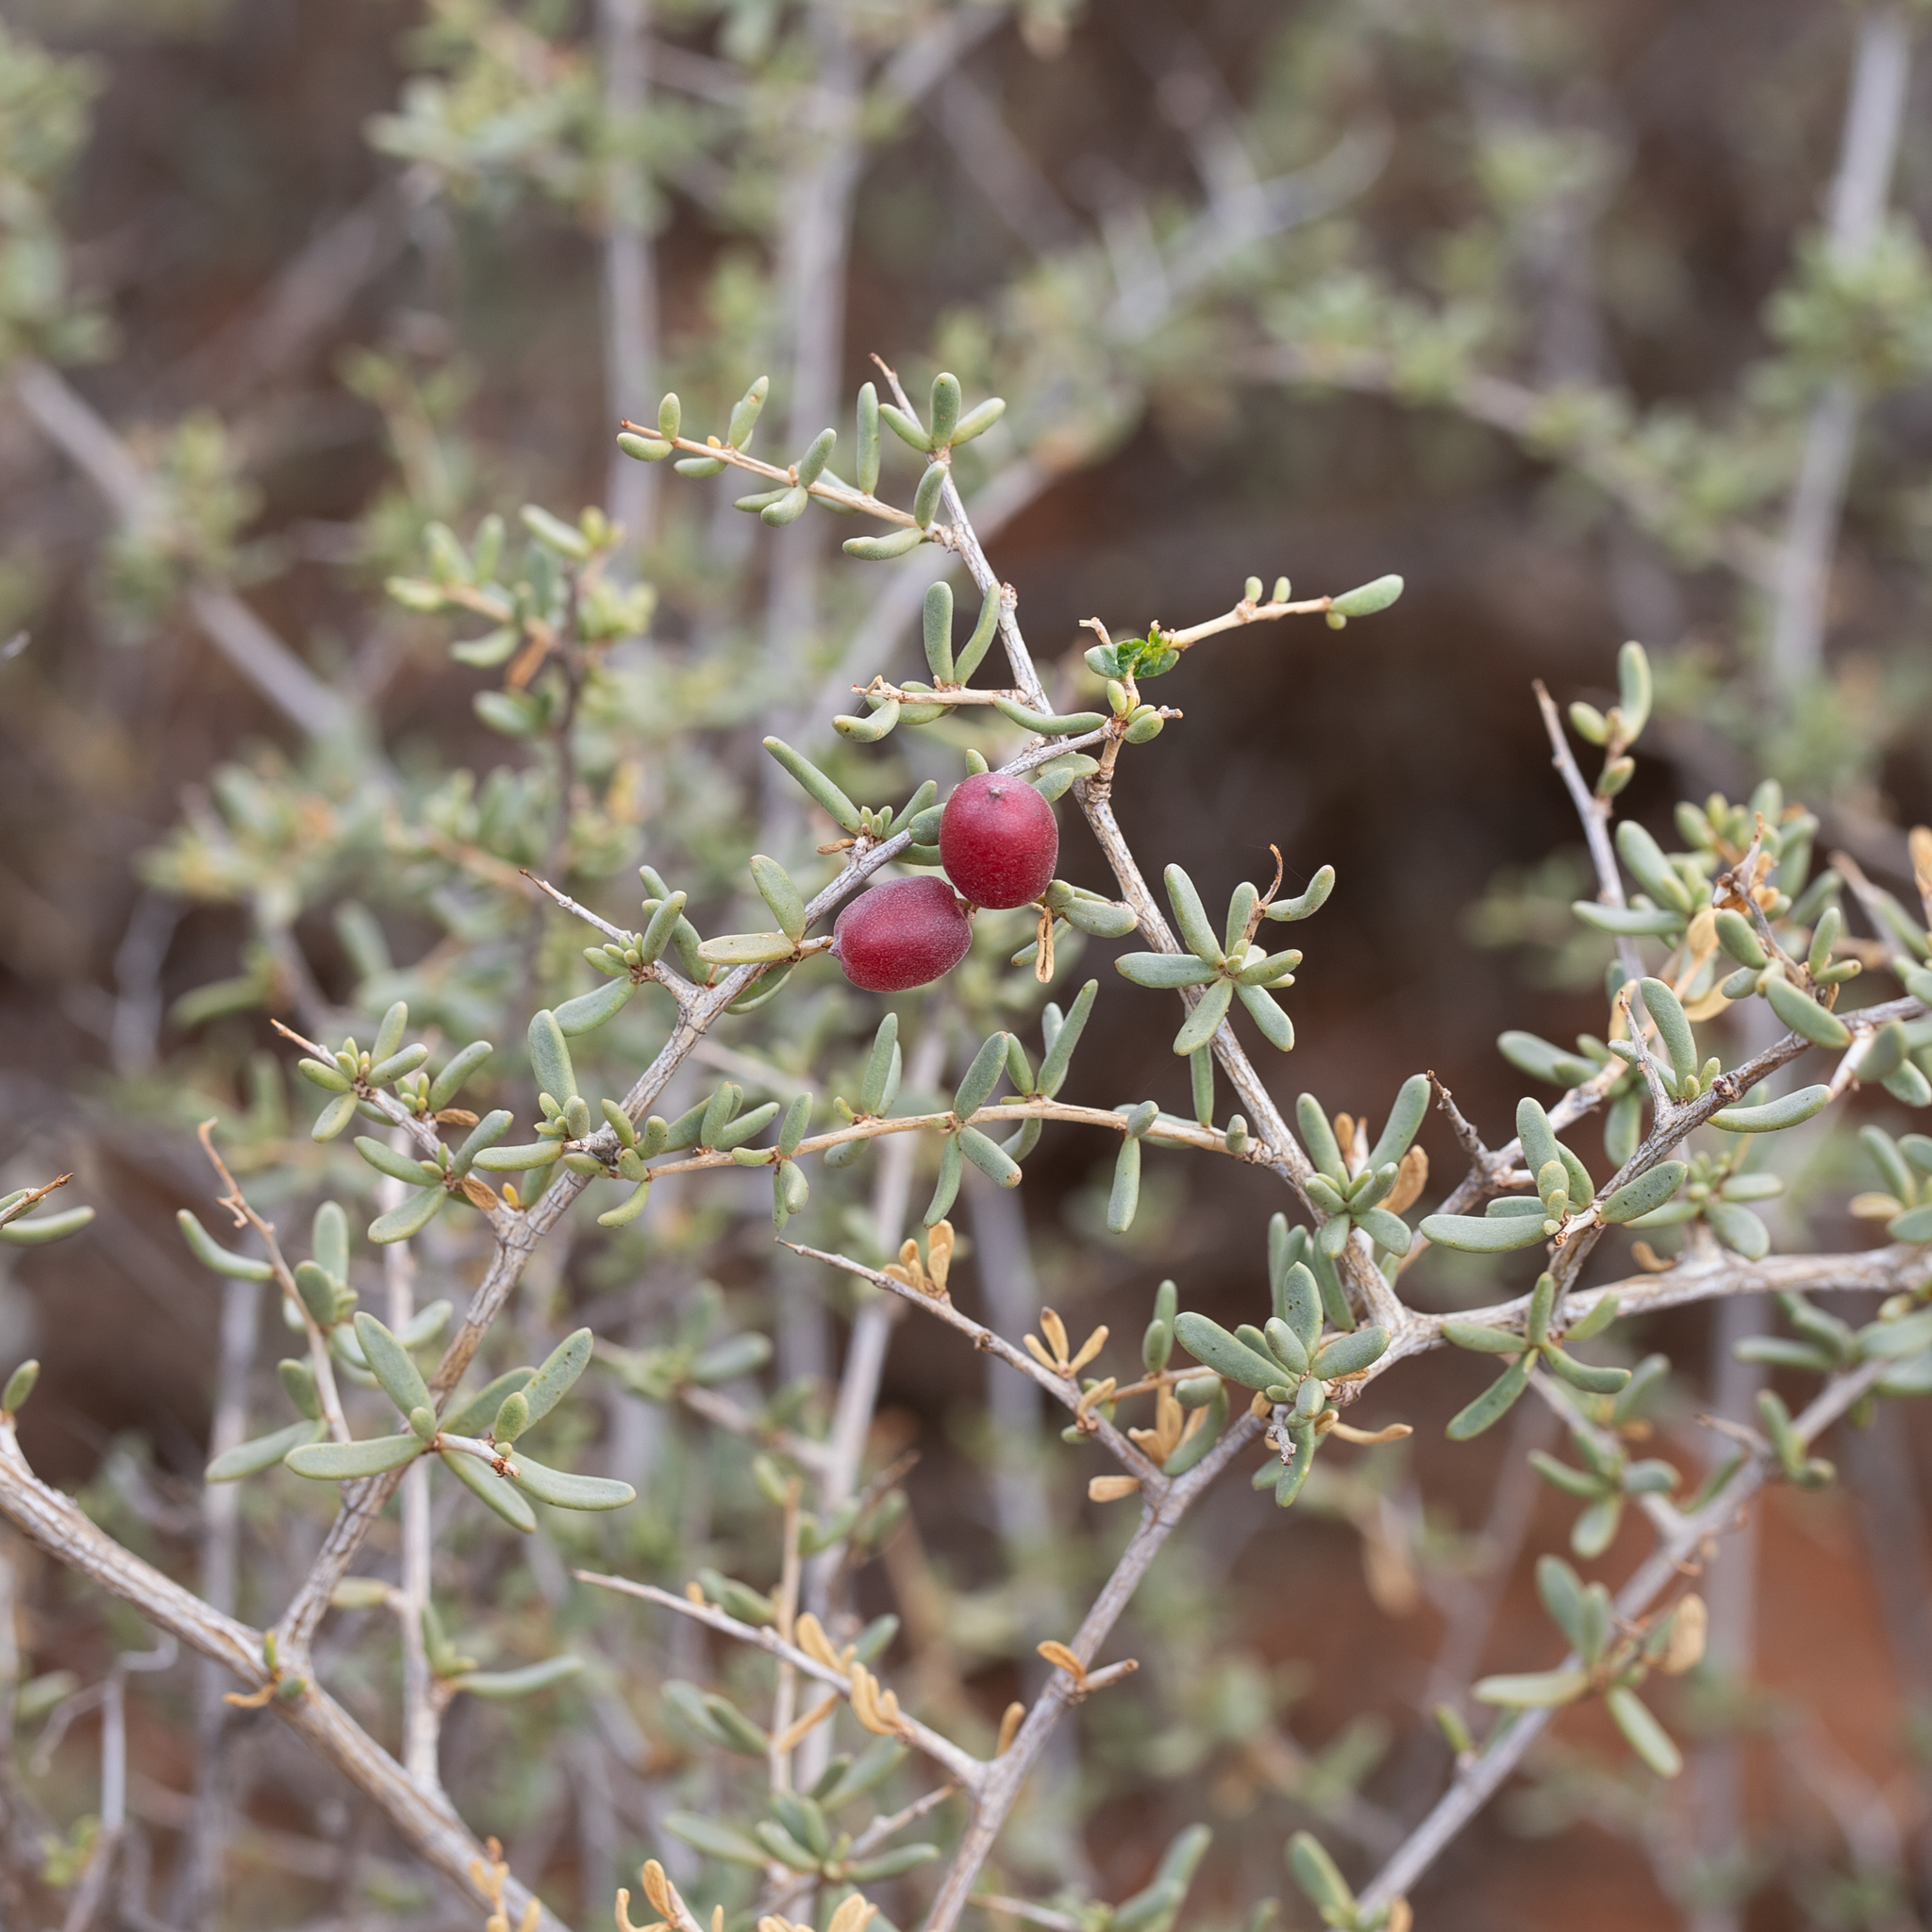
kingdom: Plantae
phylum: Tracheophyta
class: Magnoliopsida
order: Sapindales
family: Nitrariaceae
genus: Nitraria
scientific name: Nitraria billardierei
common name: Dillonbush
